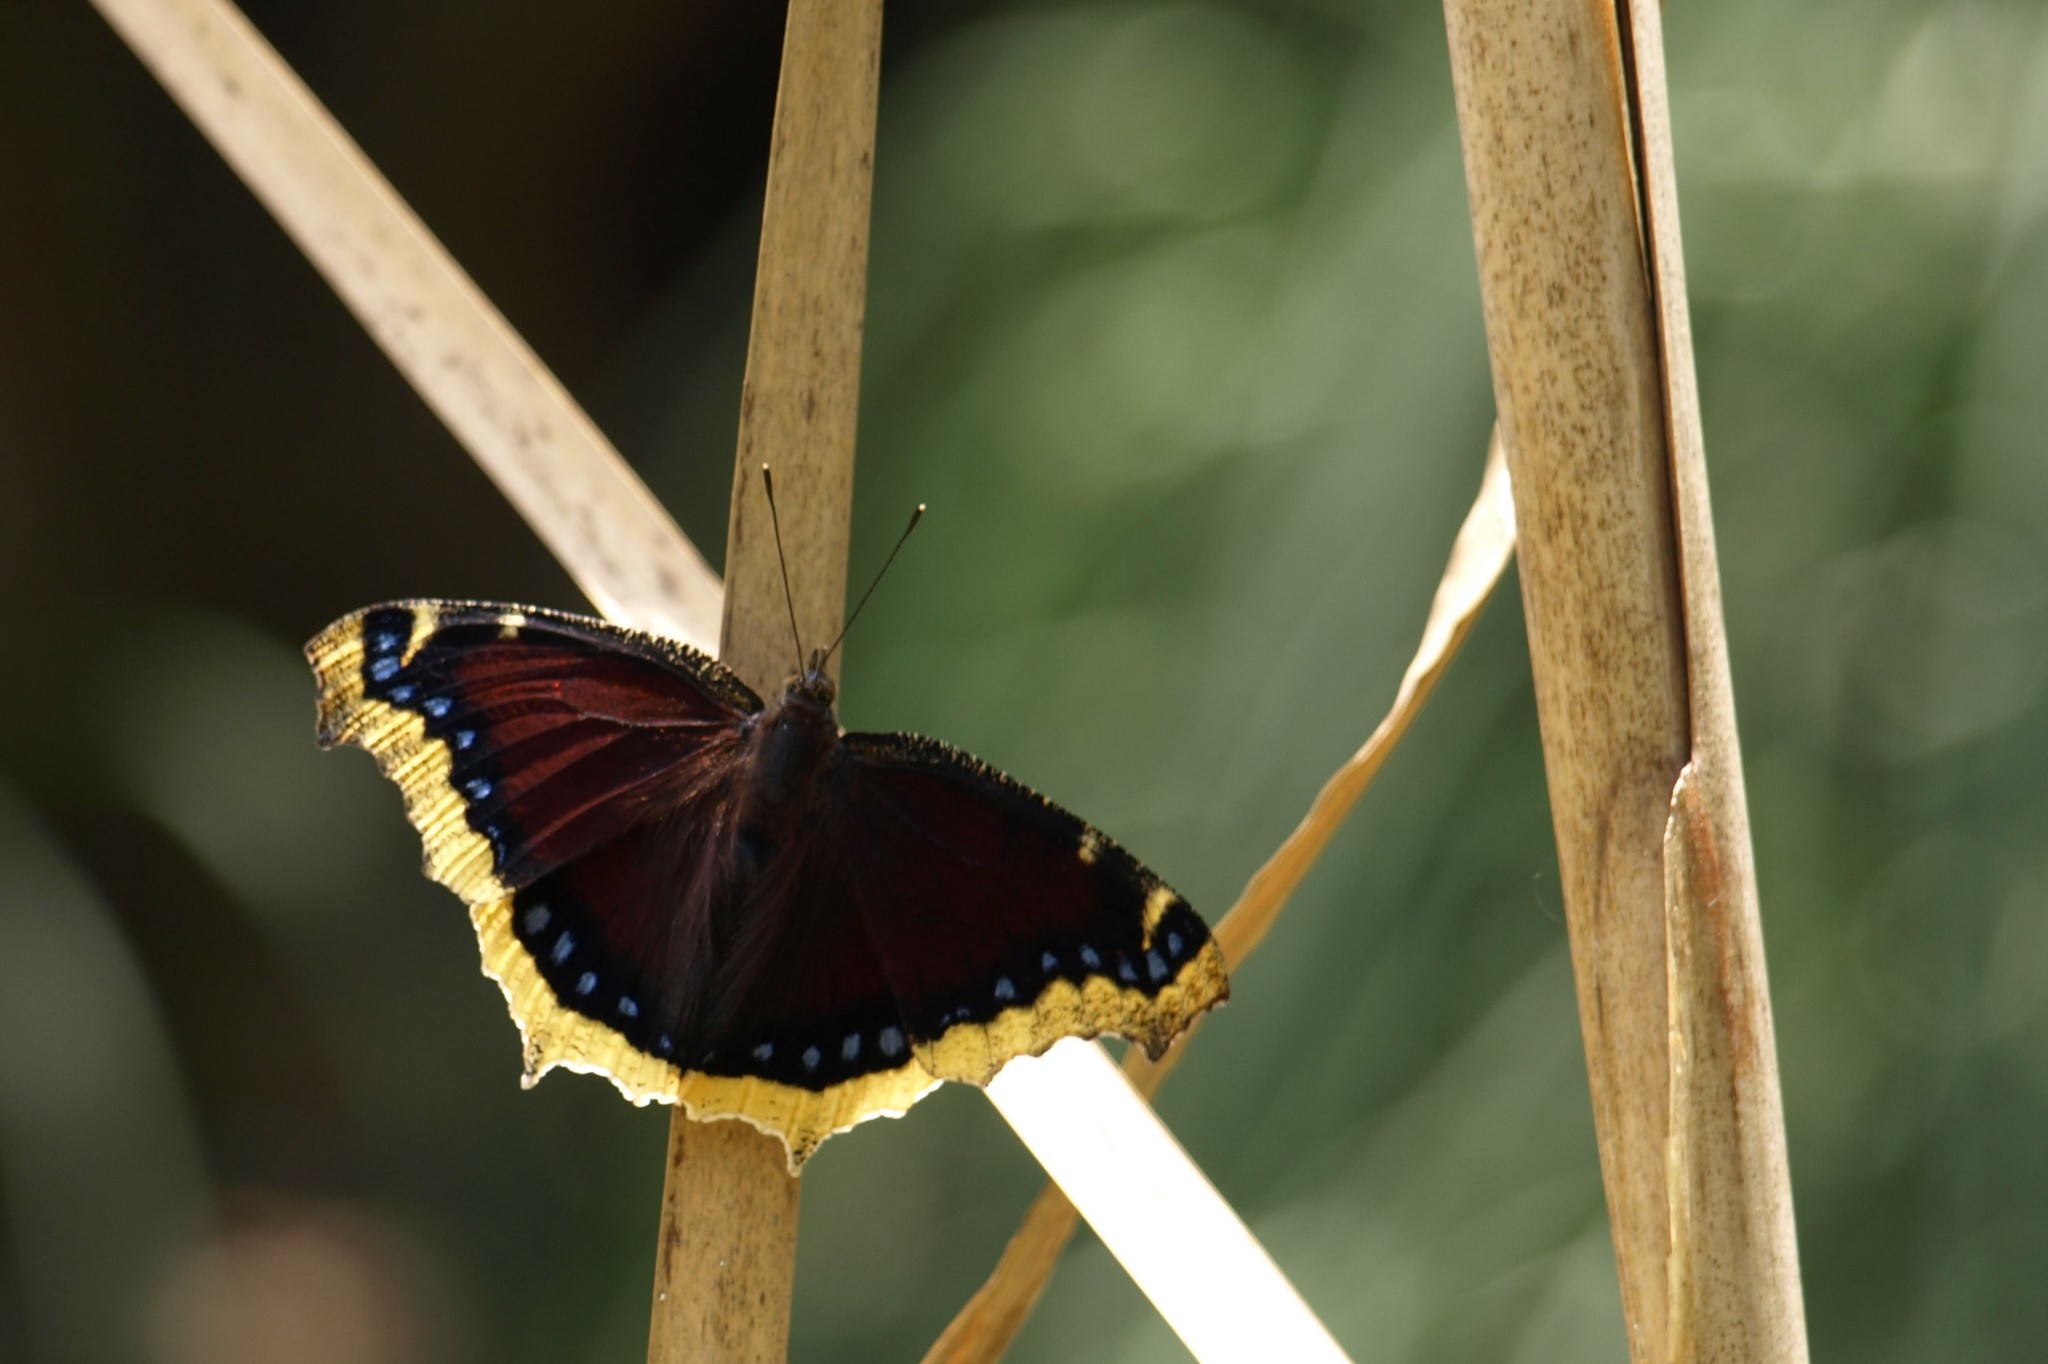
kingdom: Animalia
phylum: Arthropoda
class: Insecta
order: Lepidoptera
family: Nymphalidae
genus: Nymphalis
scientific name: Nymphalis antiopa
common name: Camberwell beauty
